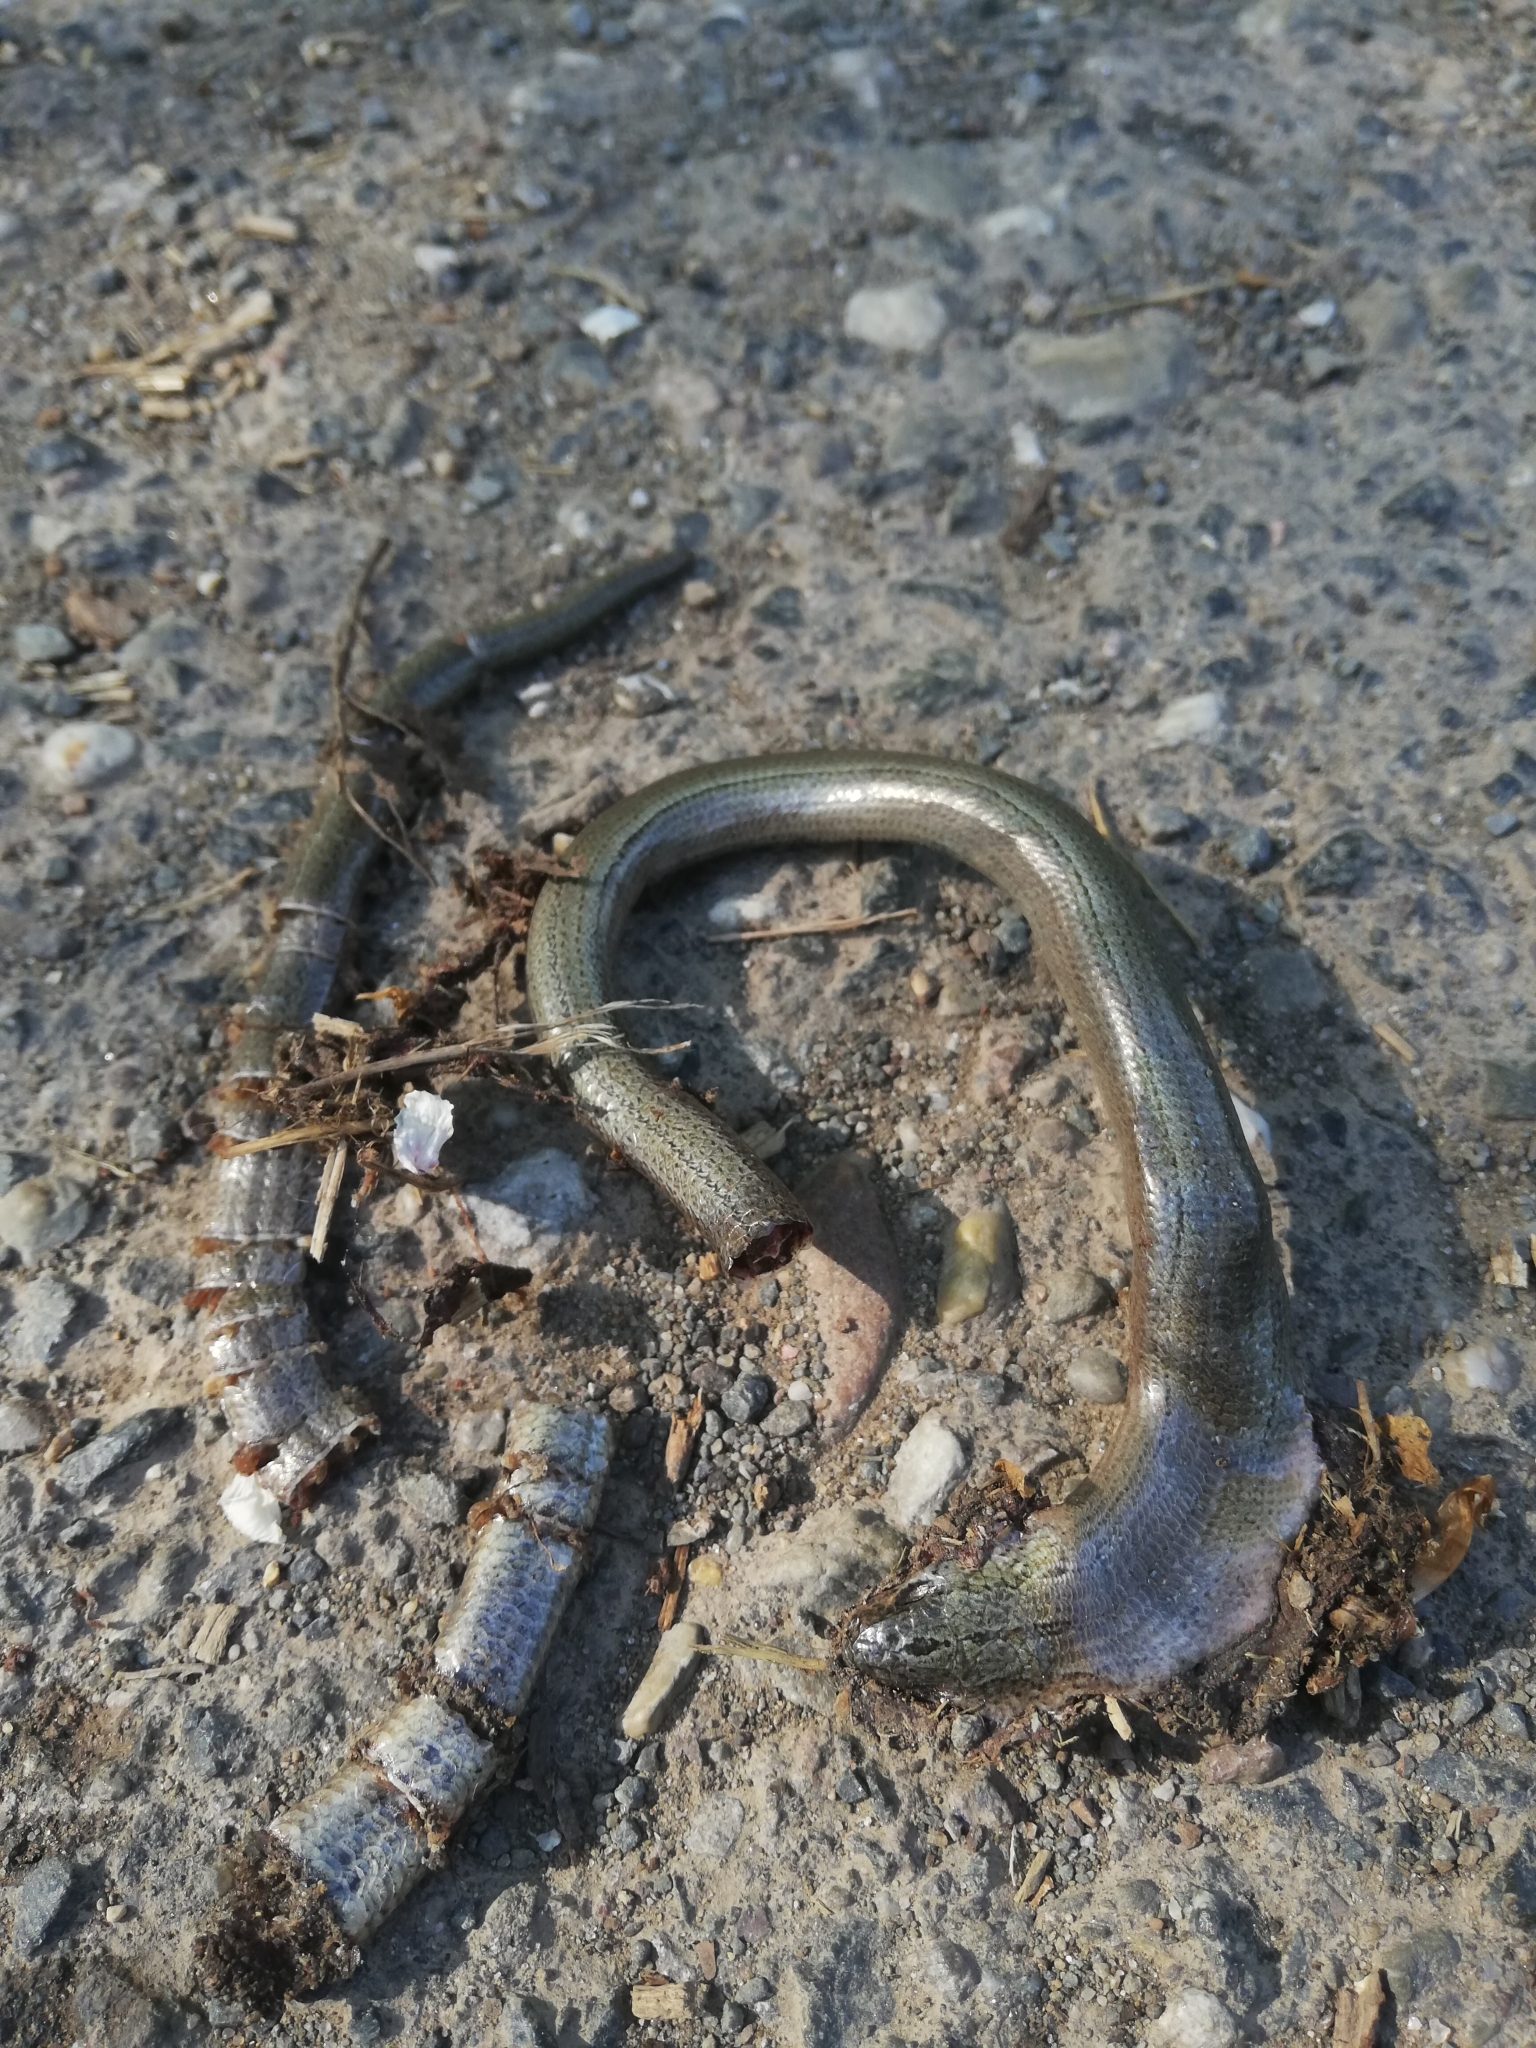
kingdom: Animalia
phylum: Chordata
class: Squamata
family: Anguidae
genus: Anguis
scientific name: Anguis fragilis
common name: Slow worm
